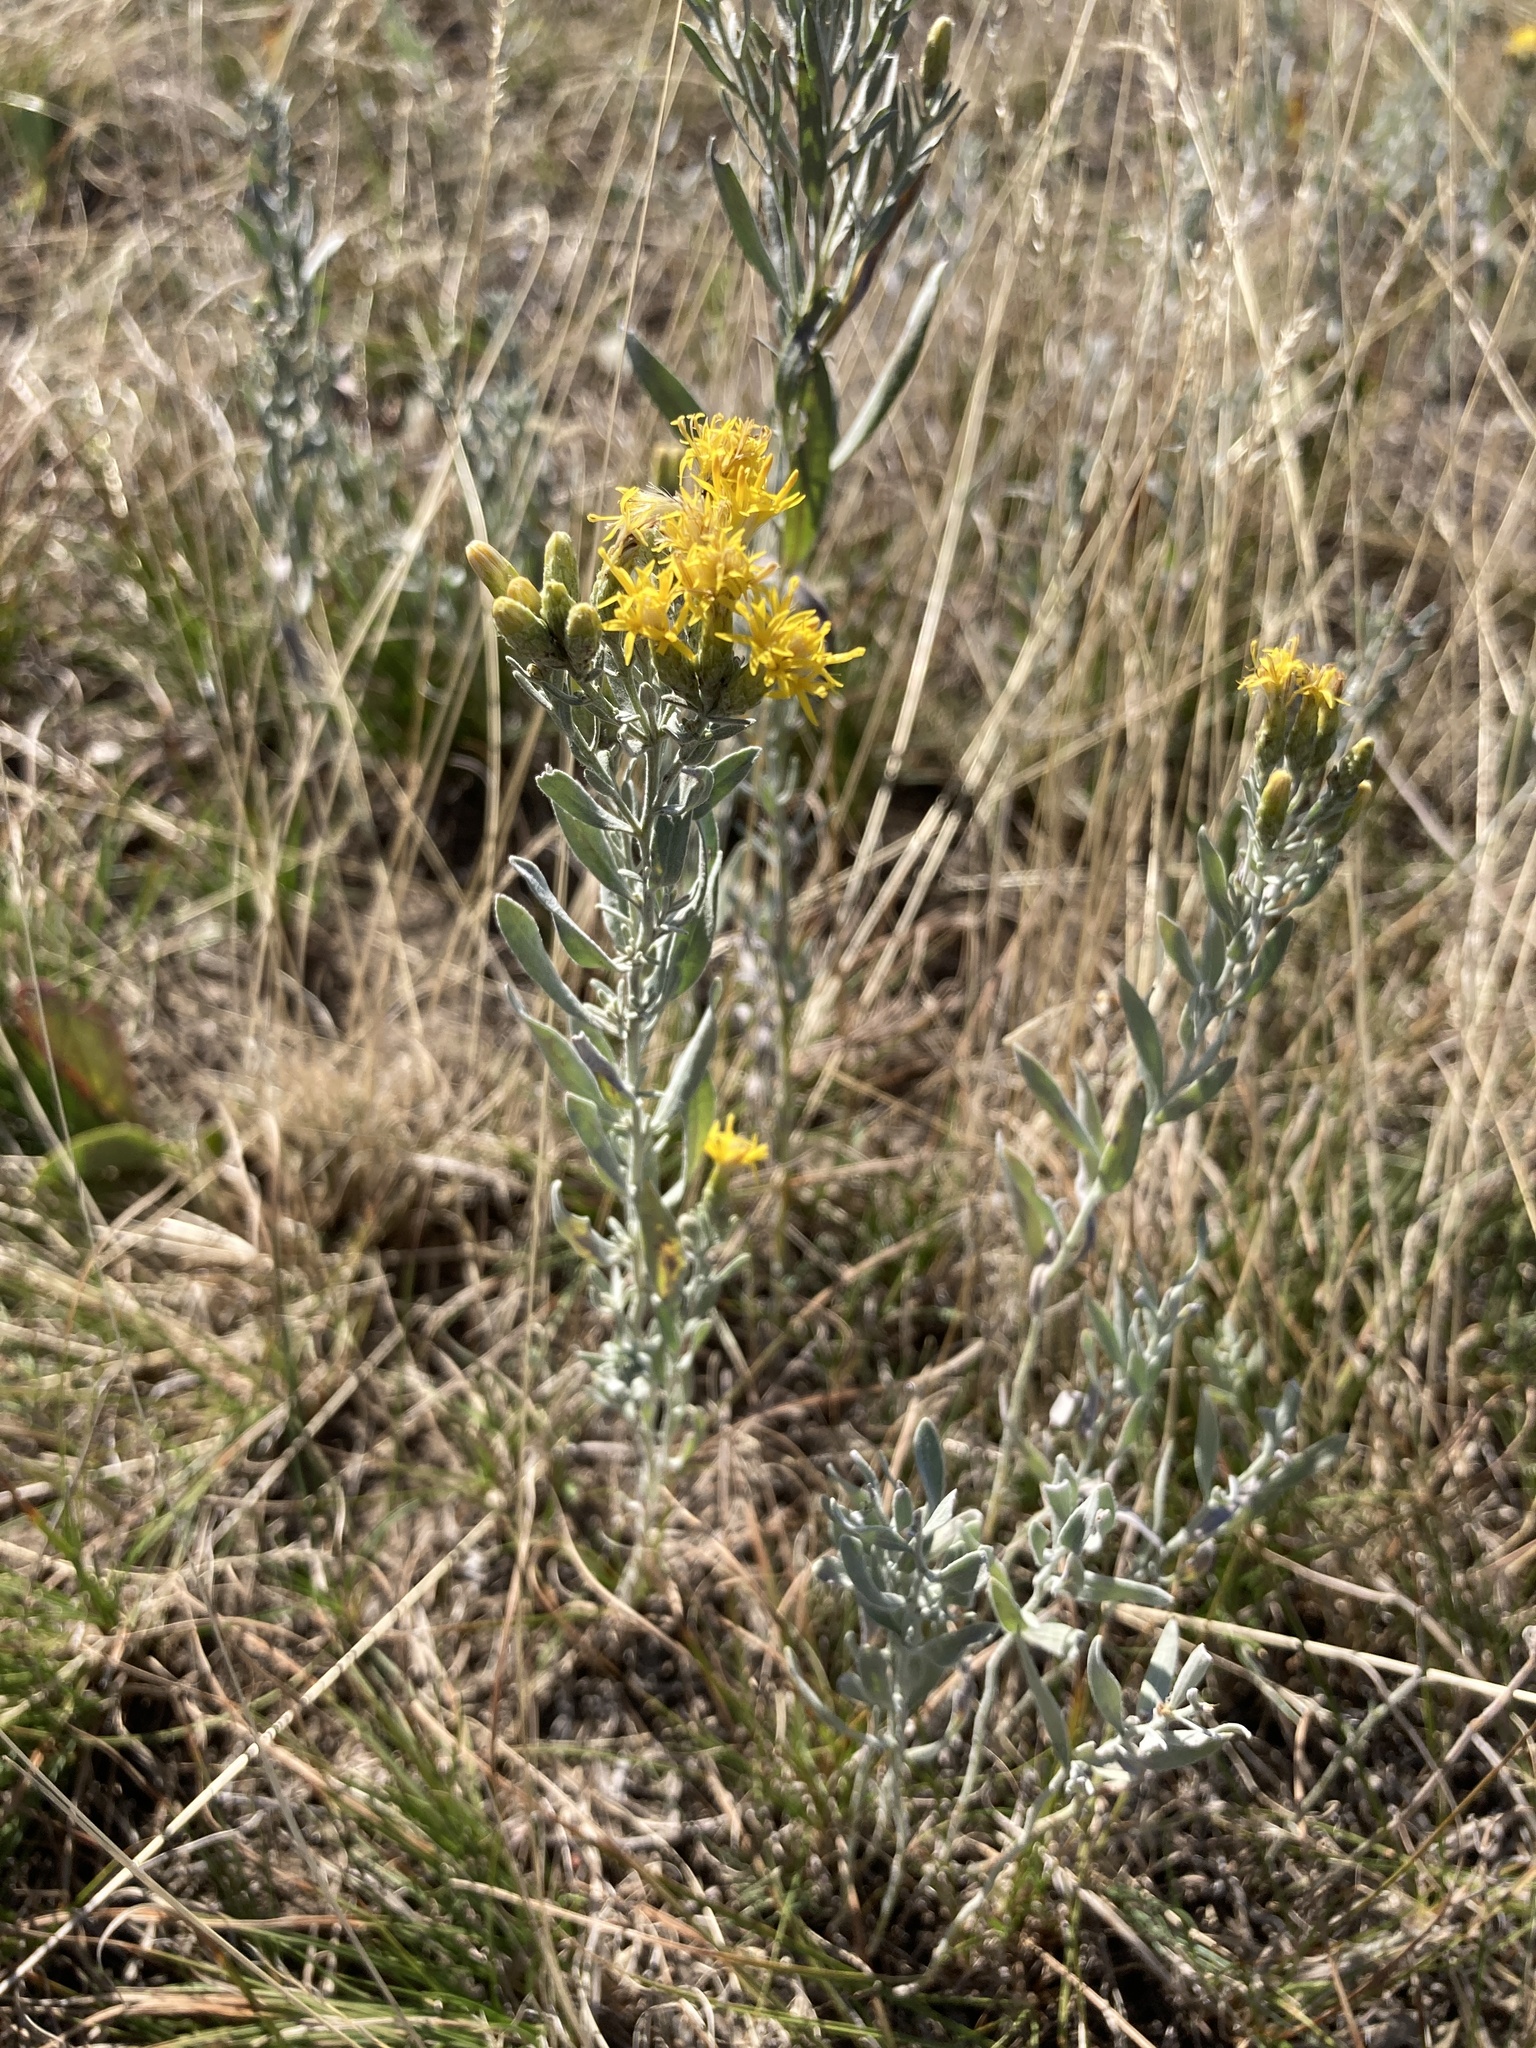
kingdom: Plantae
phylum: Tracheophyta
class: Magnoliopsida
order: Asterales
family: Asteraceae
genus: Galatella
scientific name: Galatella villosa
